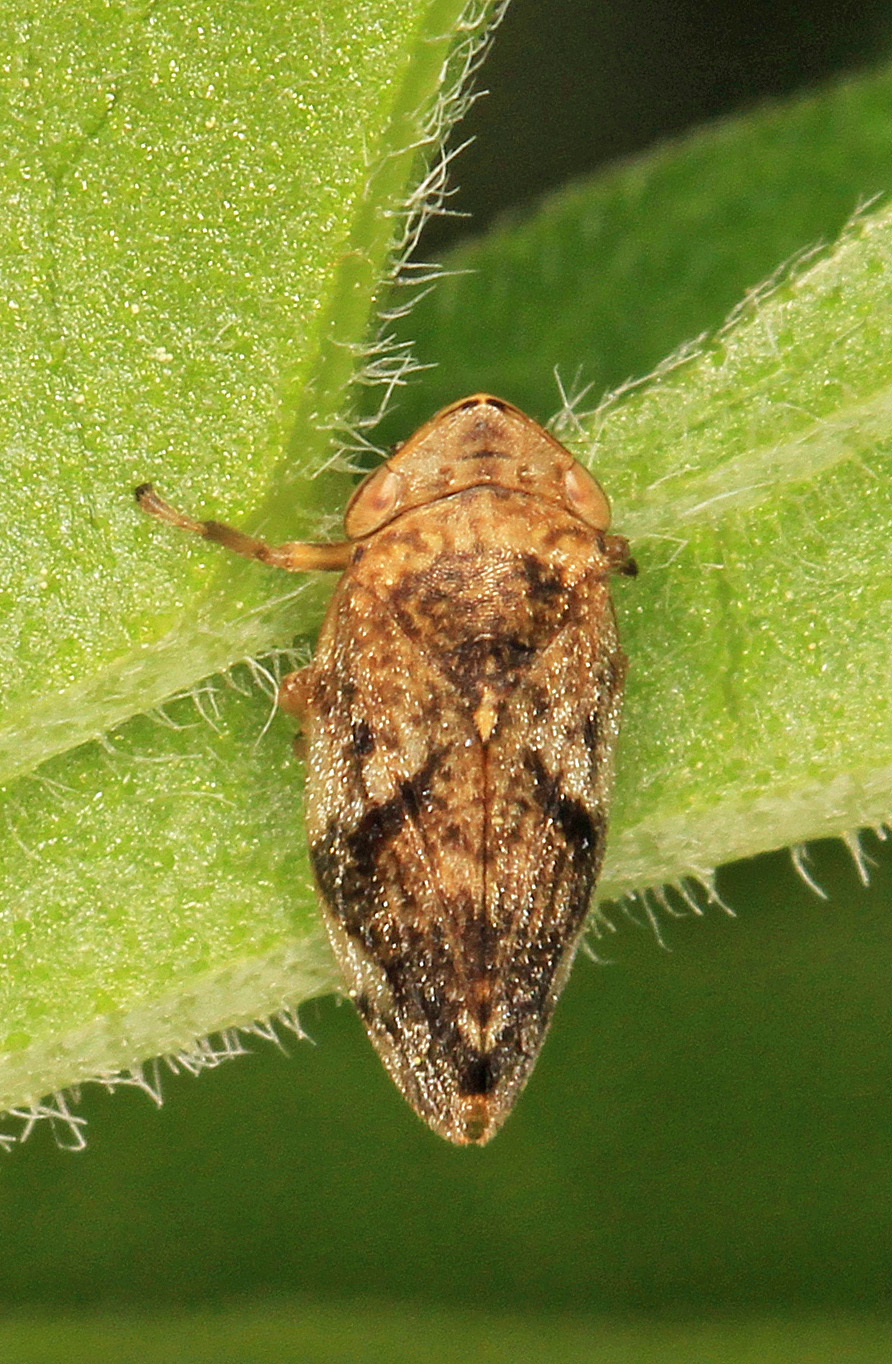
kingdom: Animalia
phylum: Arthropoda
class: Insecta
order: Hemiptera
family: Aphrophoridae
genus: Philaenus
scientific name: Philaenus spumarius
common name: Meadow spittlebug
